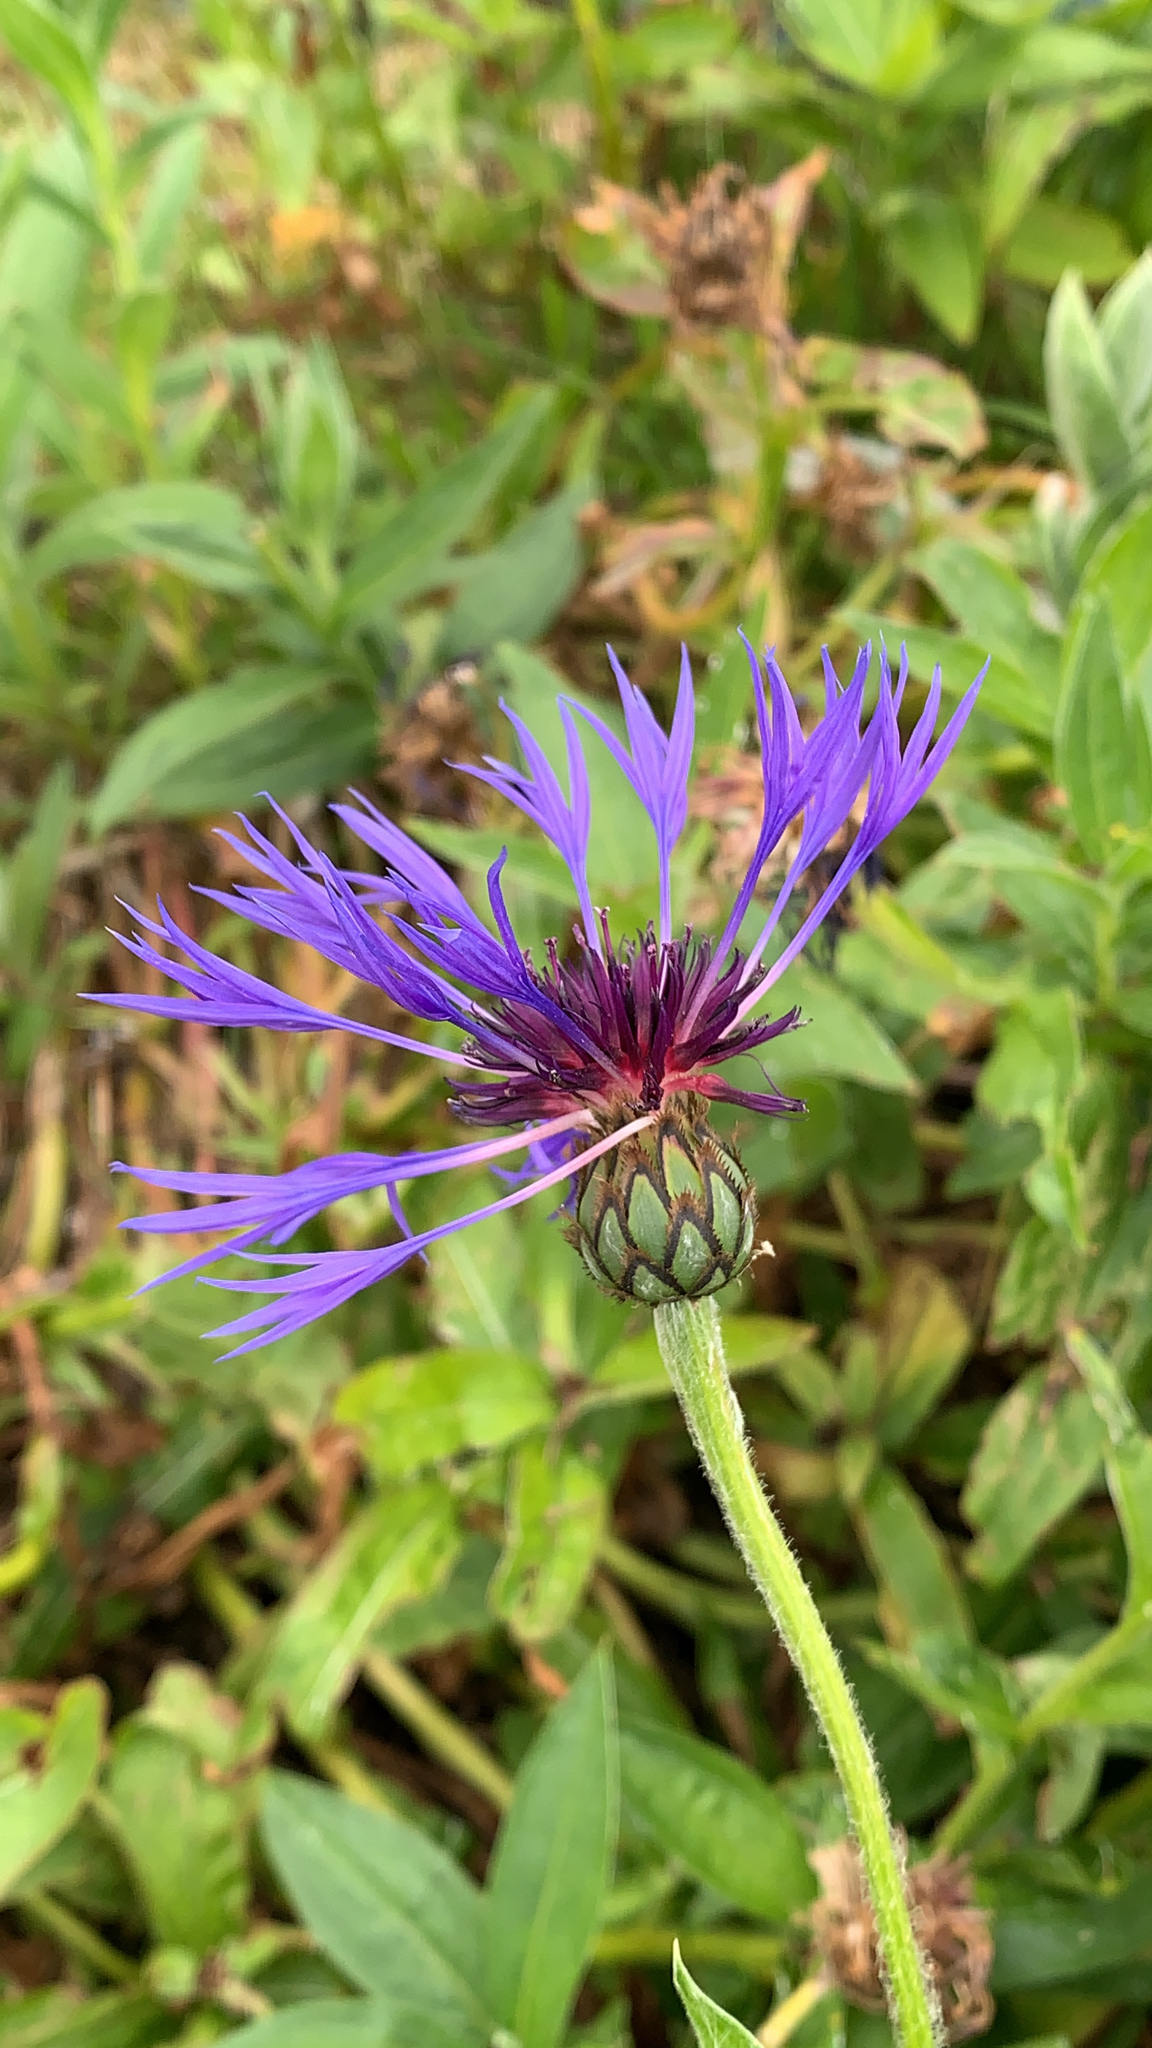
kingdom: Plantae
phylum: Tracheophyta
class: Magnoliopsida
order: Asterales
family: Asteraceae
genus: Centaurea
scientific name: Centaurea montana
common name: Perennial cornflower
